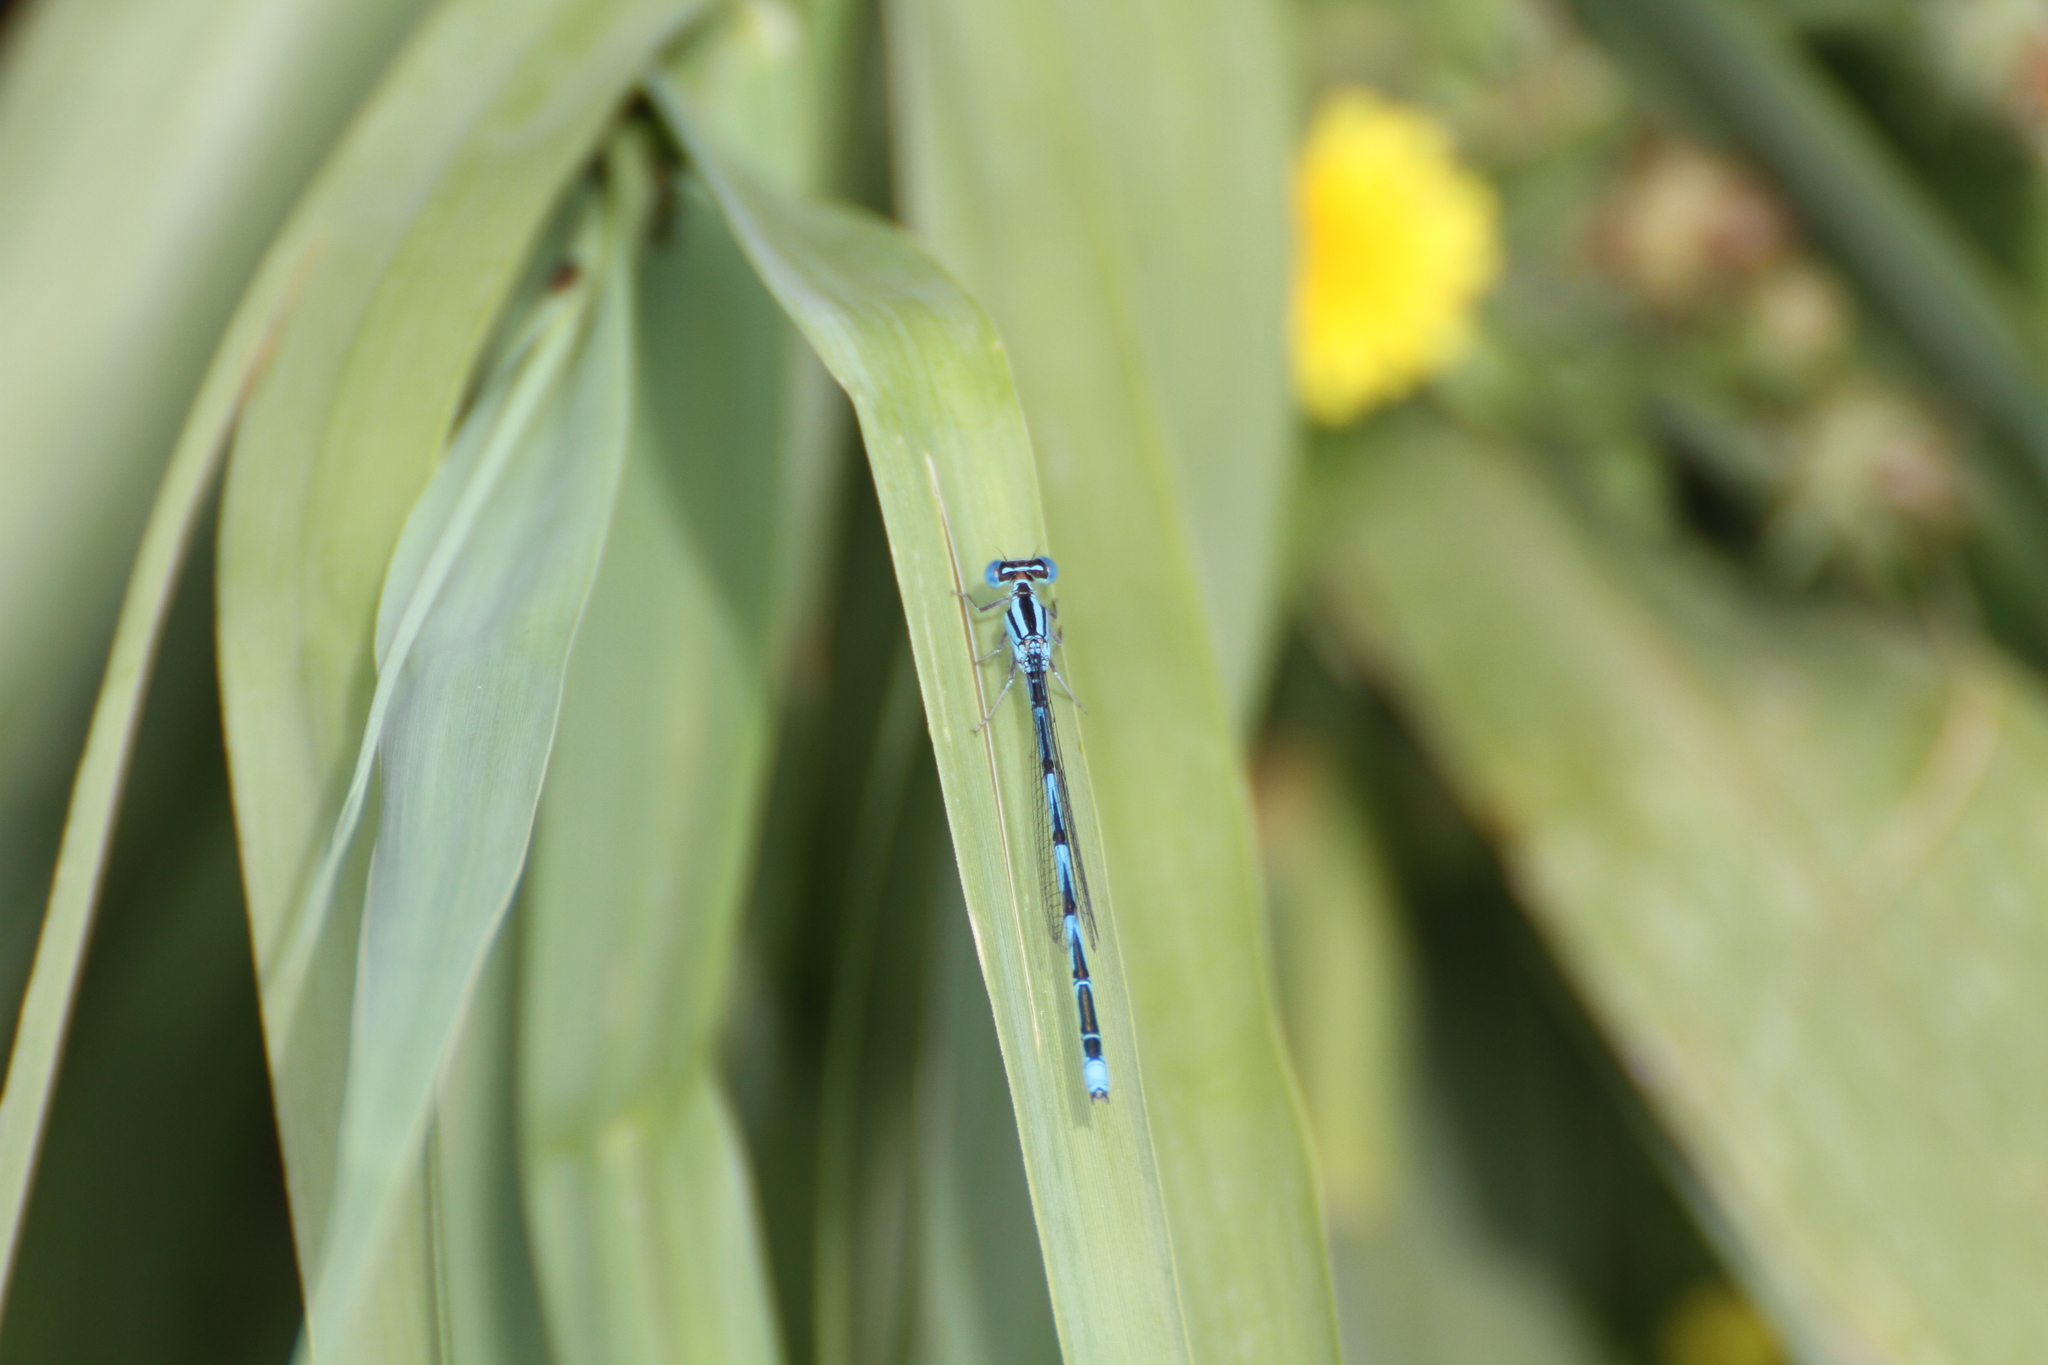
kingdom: Animalia
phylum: Arthropoda
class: Insecta
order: Odonata
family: Coenagrionidae
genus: Erythromma
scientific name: Erythromma lindenii
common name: Blue-eye
